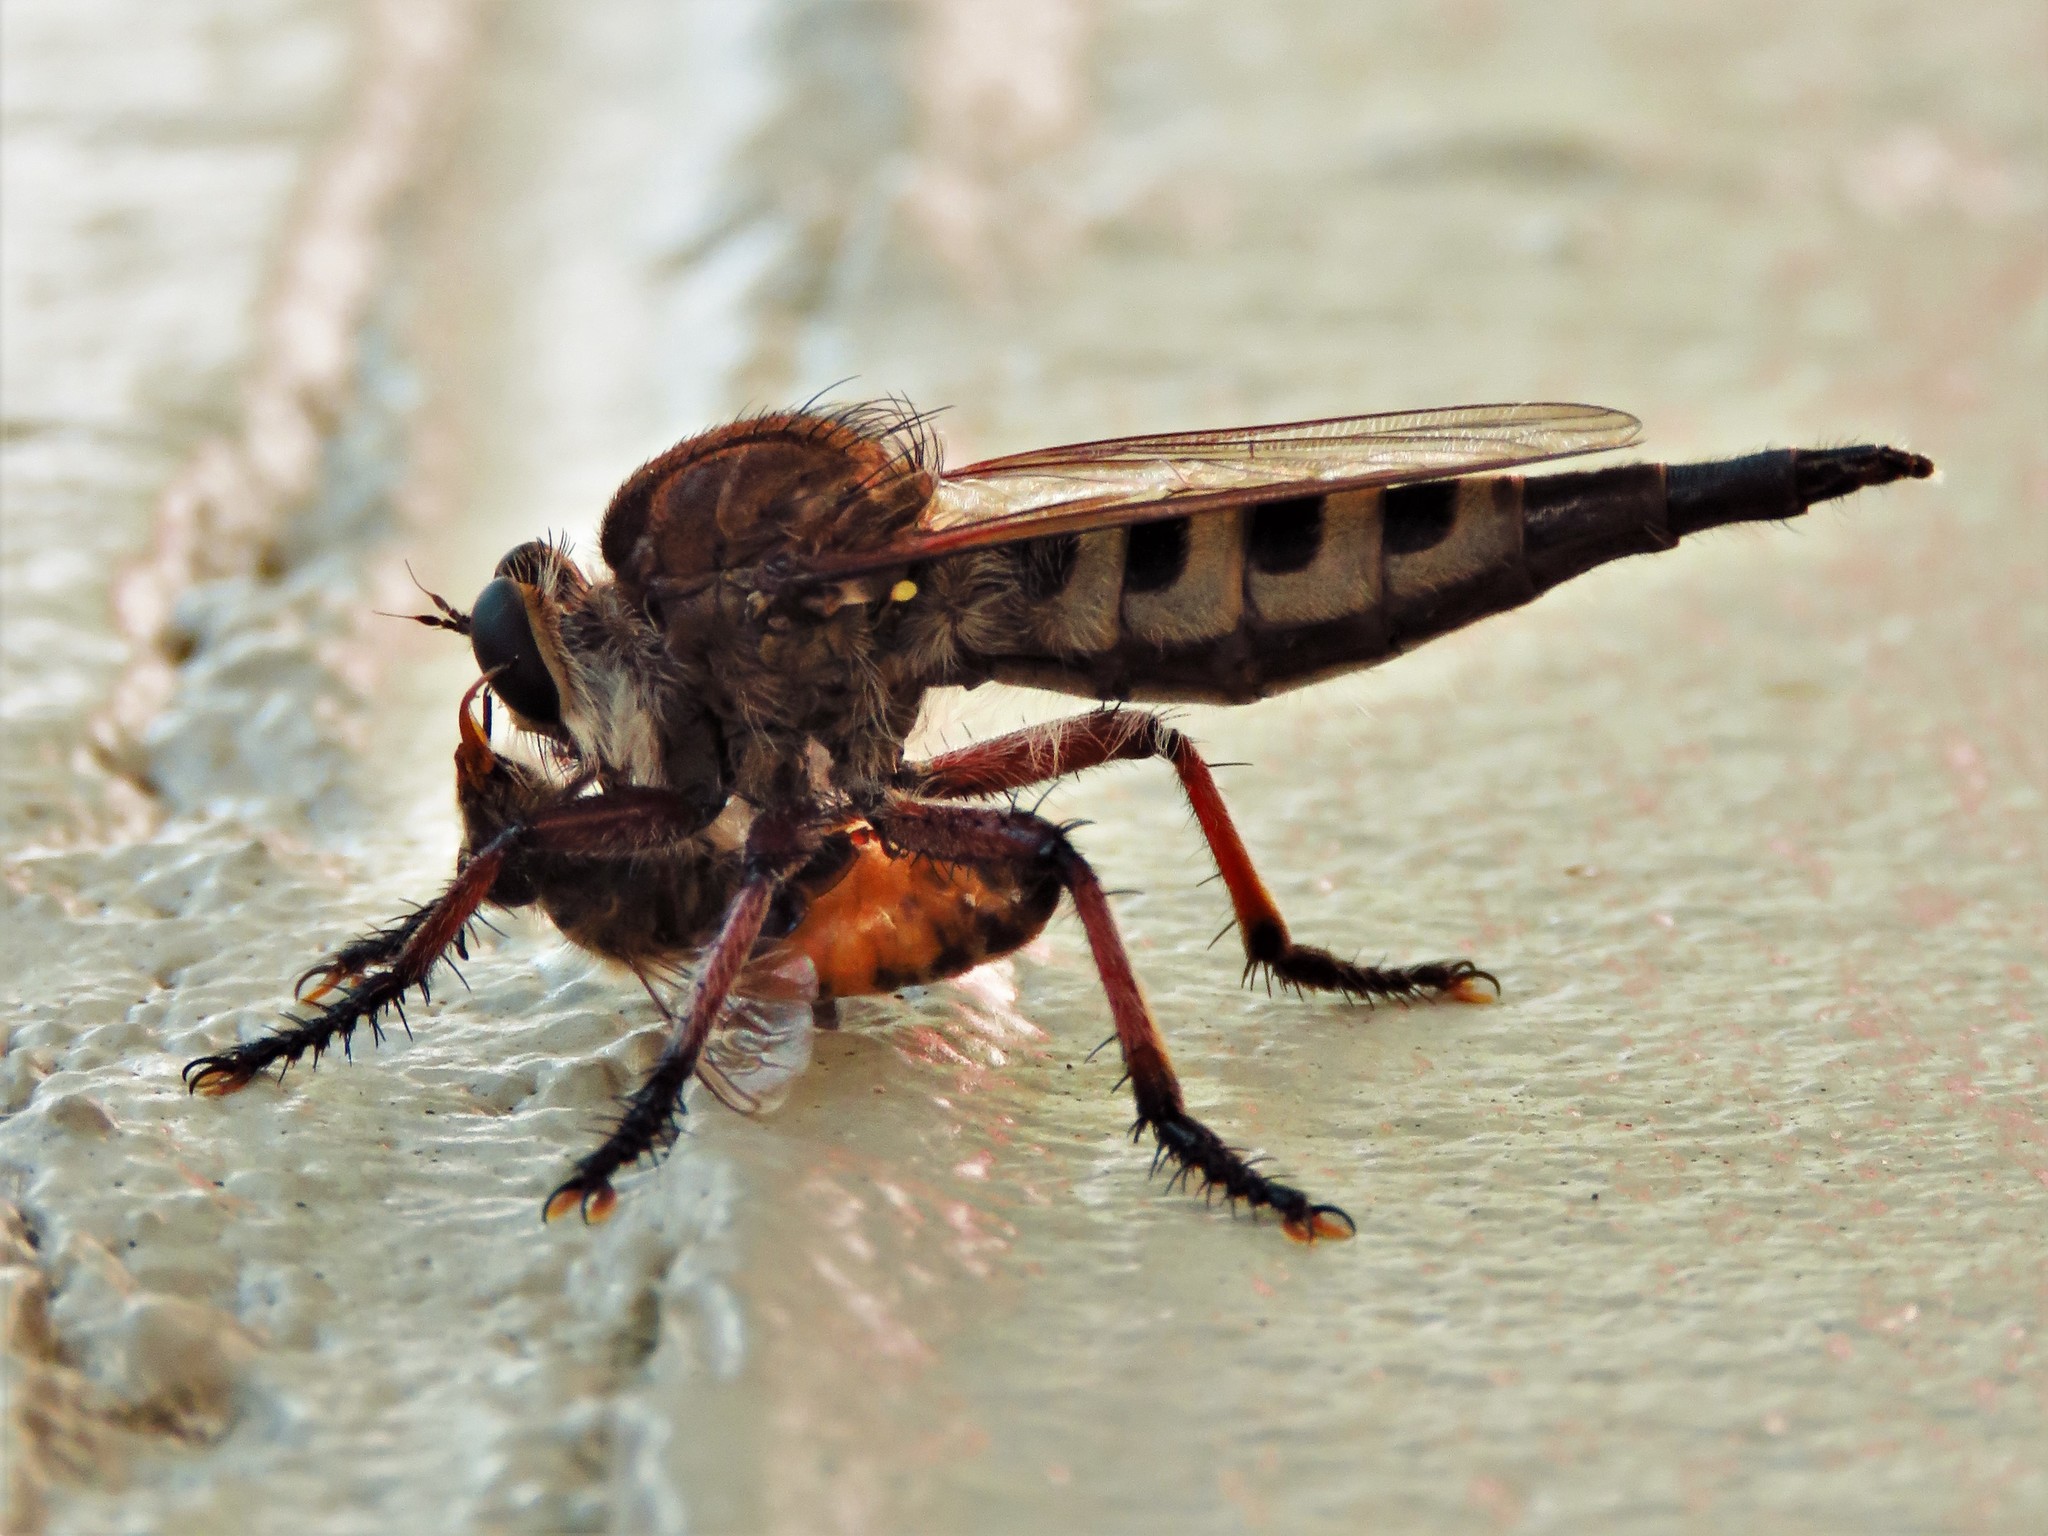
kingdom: Animalia
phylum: Arthropoda
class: Insecta
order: Diptera
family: Asilidae
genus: Promachus
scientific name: Promachus hinei
